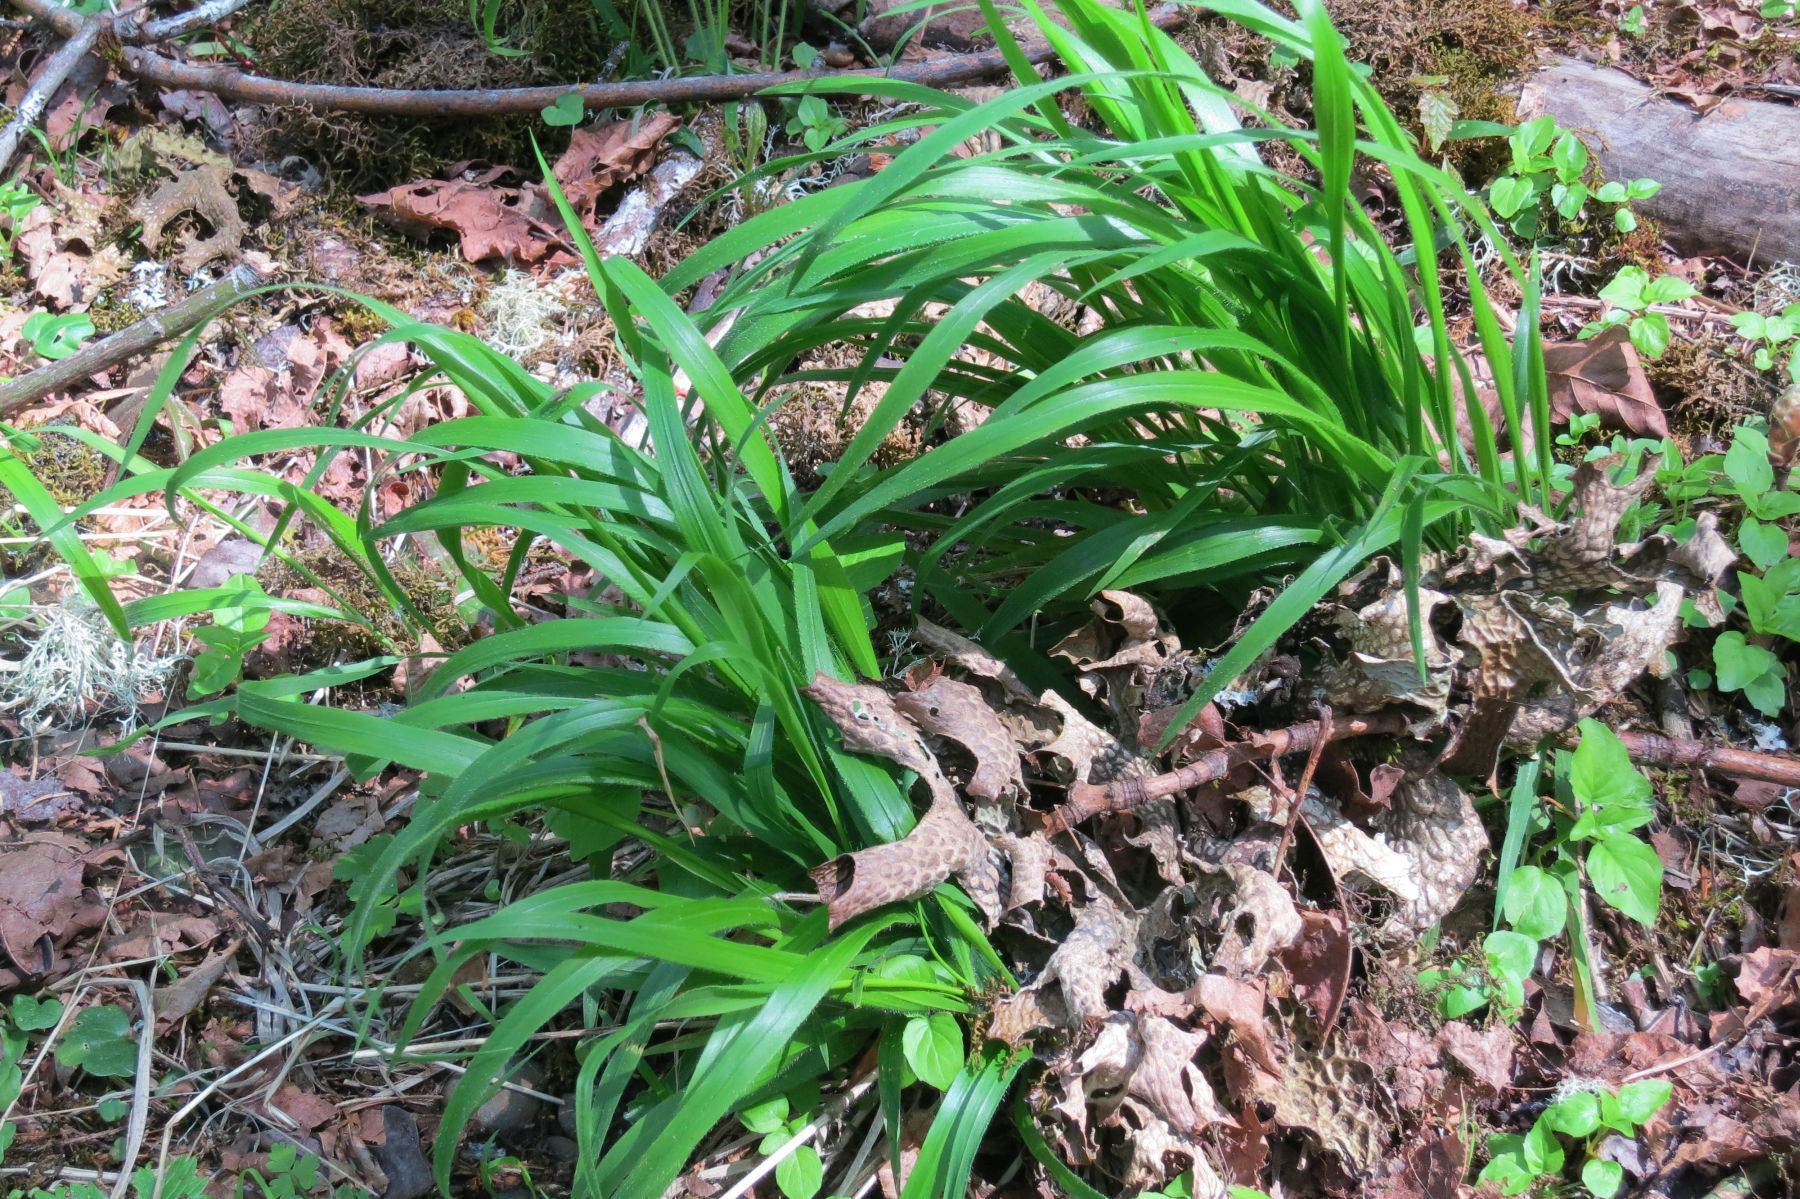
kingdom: Plantae
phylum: Tracheophyta
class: Liliopsida
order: Poales
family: Poaceae
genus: Brachypodium
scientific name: Brachypodium sylvaticum
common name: False-brome
